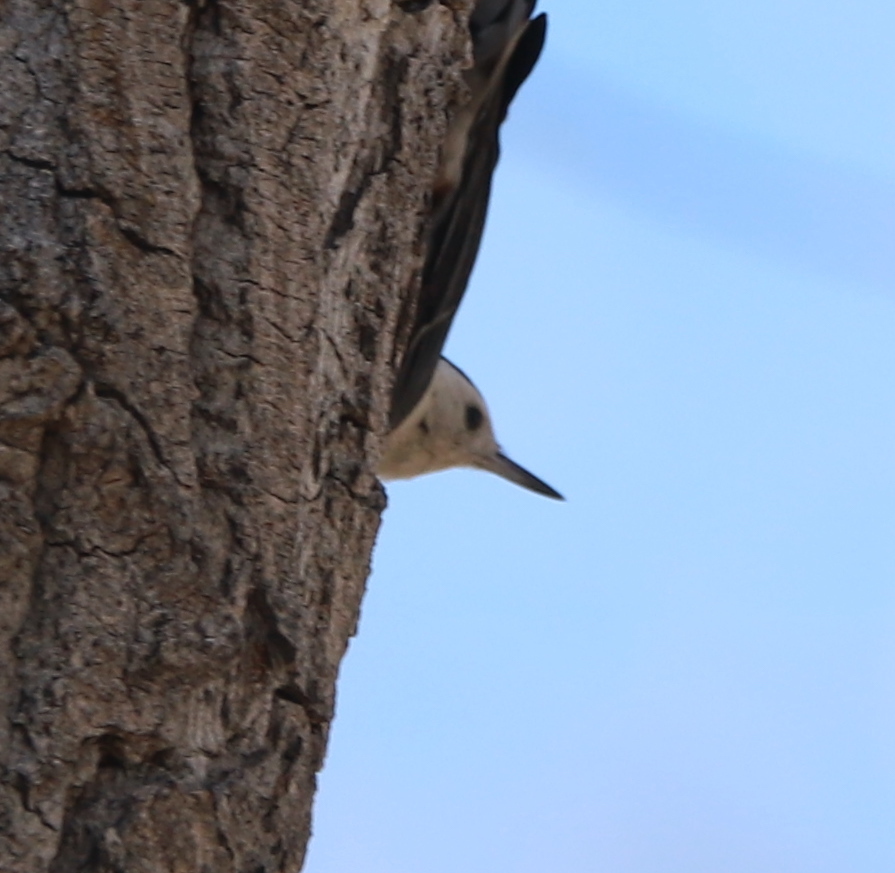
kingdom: Animalia
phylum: Chordata
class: Aves
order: Passeriformes
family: Sittidae
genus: Sitta
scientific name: Sitta carolinensis
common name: White-breasted nuthatch
